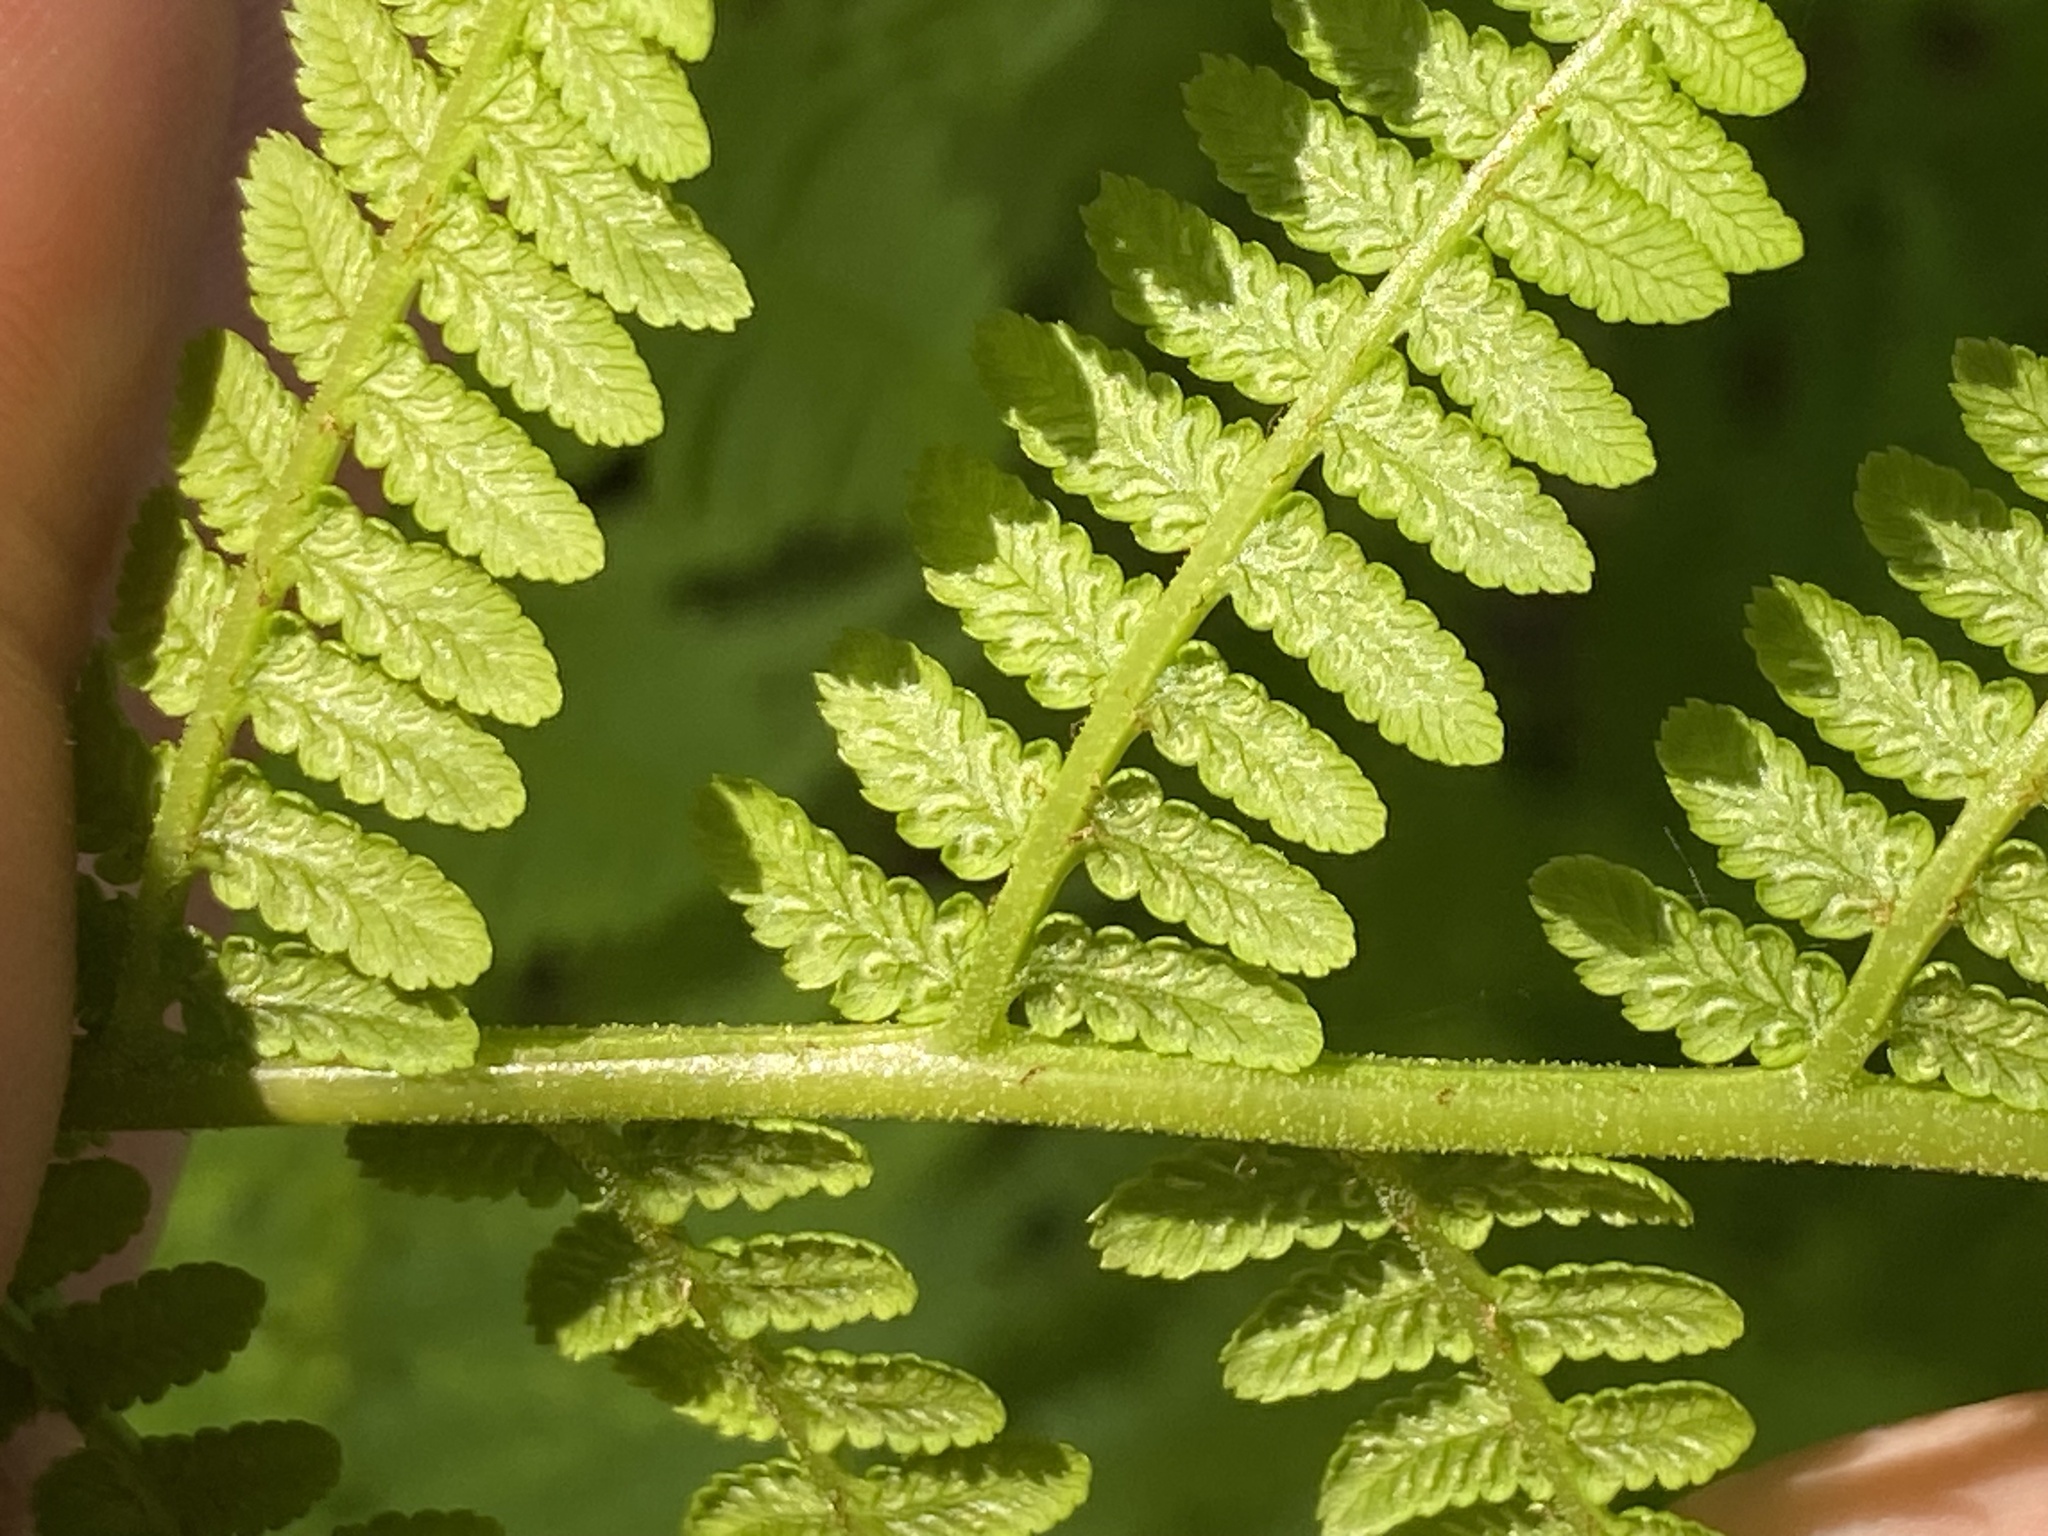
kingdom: Plantae
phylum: Tracheophyta
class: Polypodiopsida
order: Polypodiales
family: Athyriaceae
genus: Athyrium
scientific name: Athyrium angustum
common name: Northern lady fern
